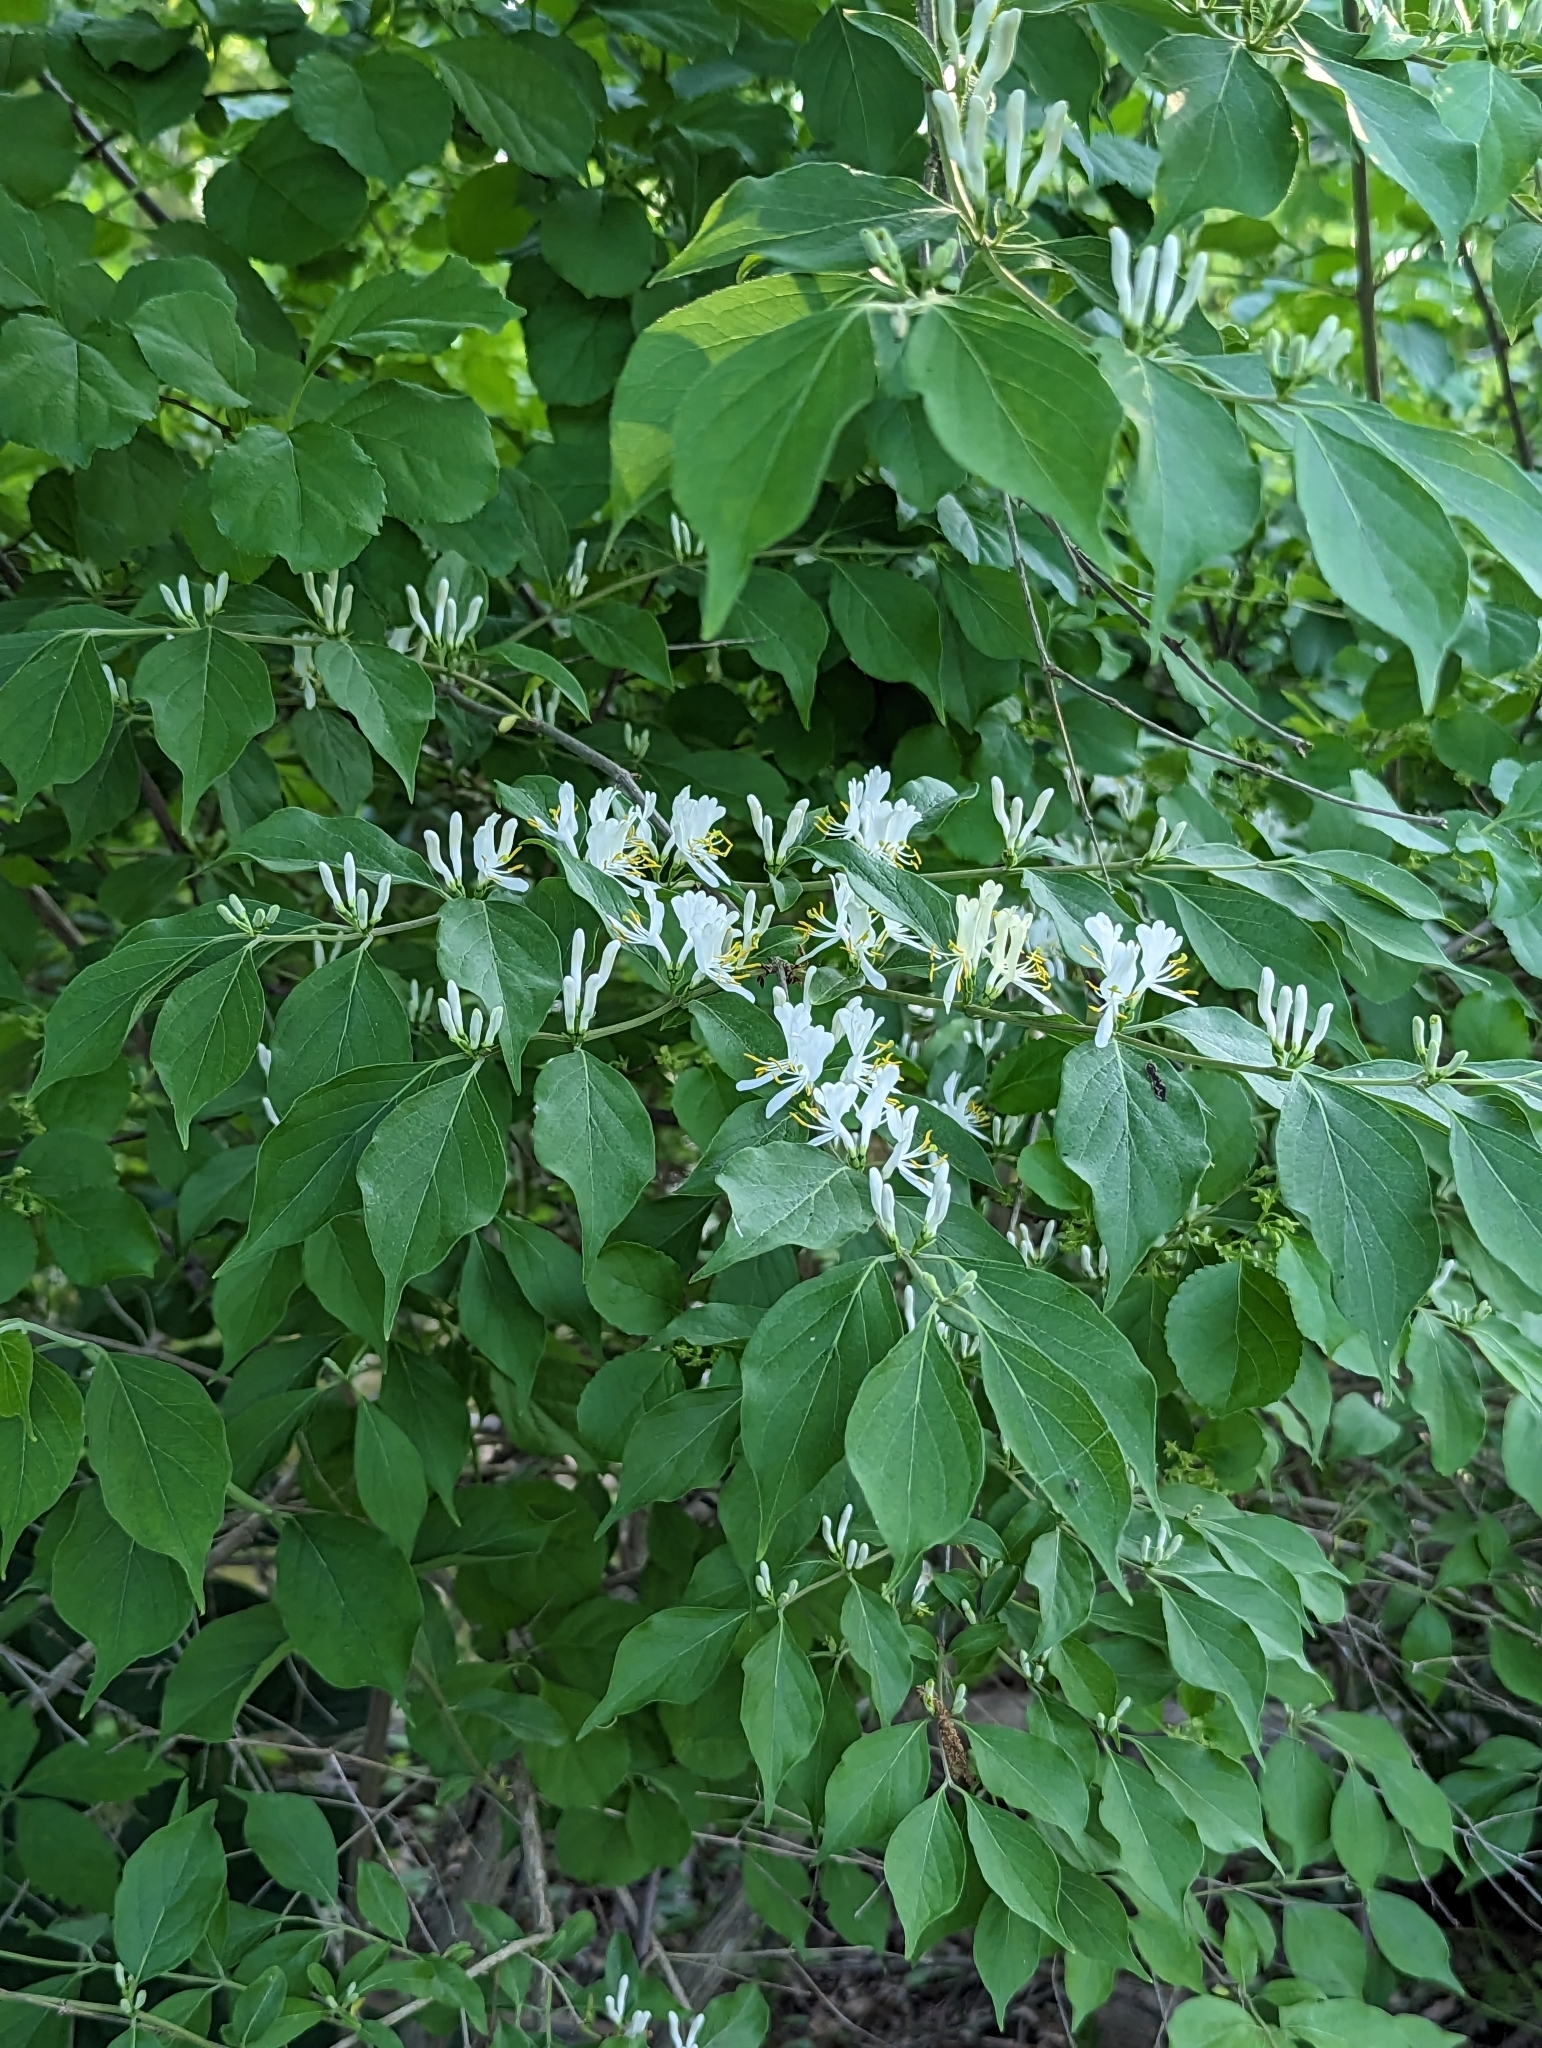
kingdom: Plantae
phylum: Tracheophyta
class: Magnoliopsida
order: Dipsacales
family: Caprifoliaceae
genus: Lonicera
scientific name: Lonicera maackii
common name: Amur honeysuckle
